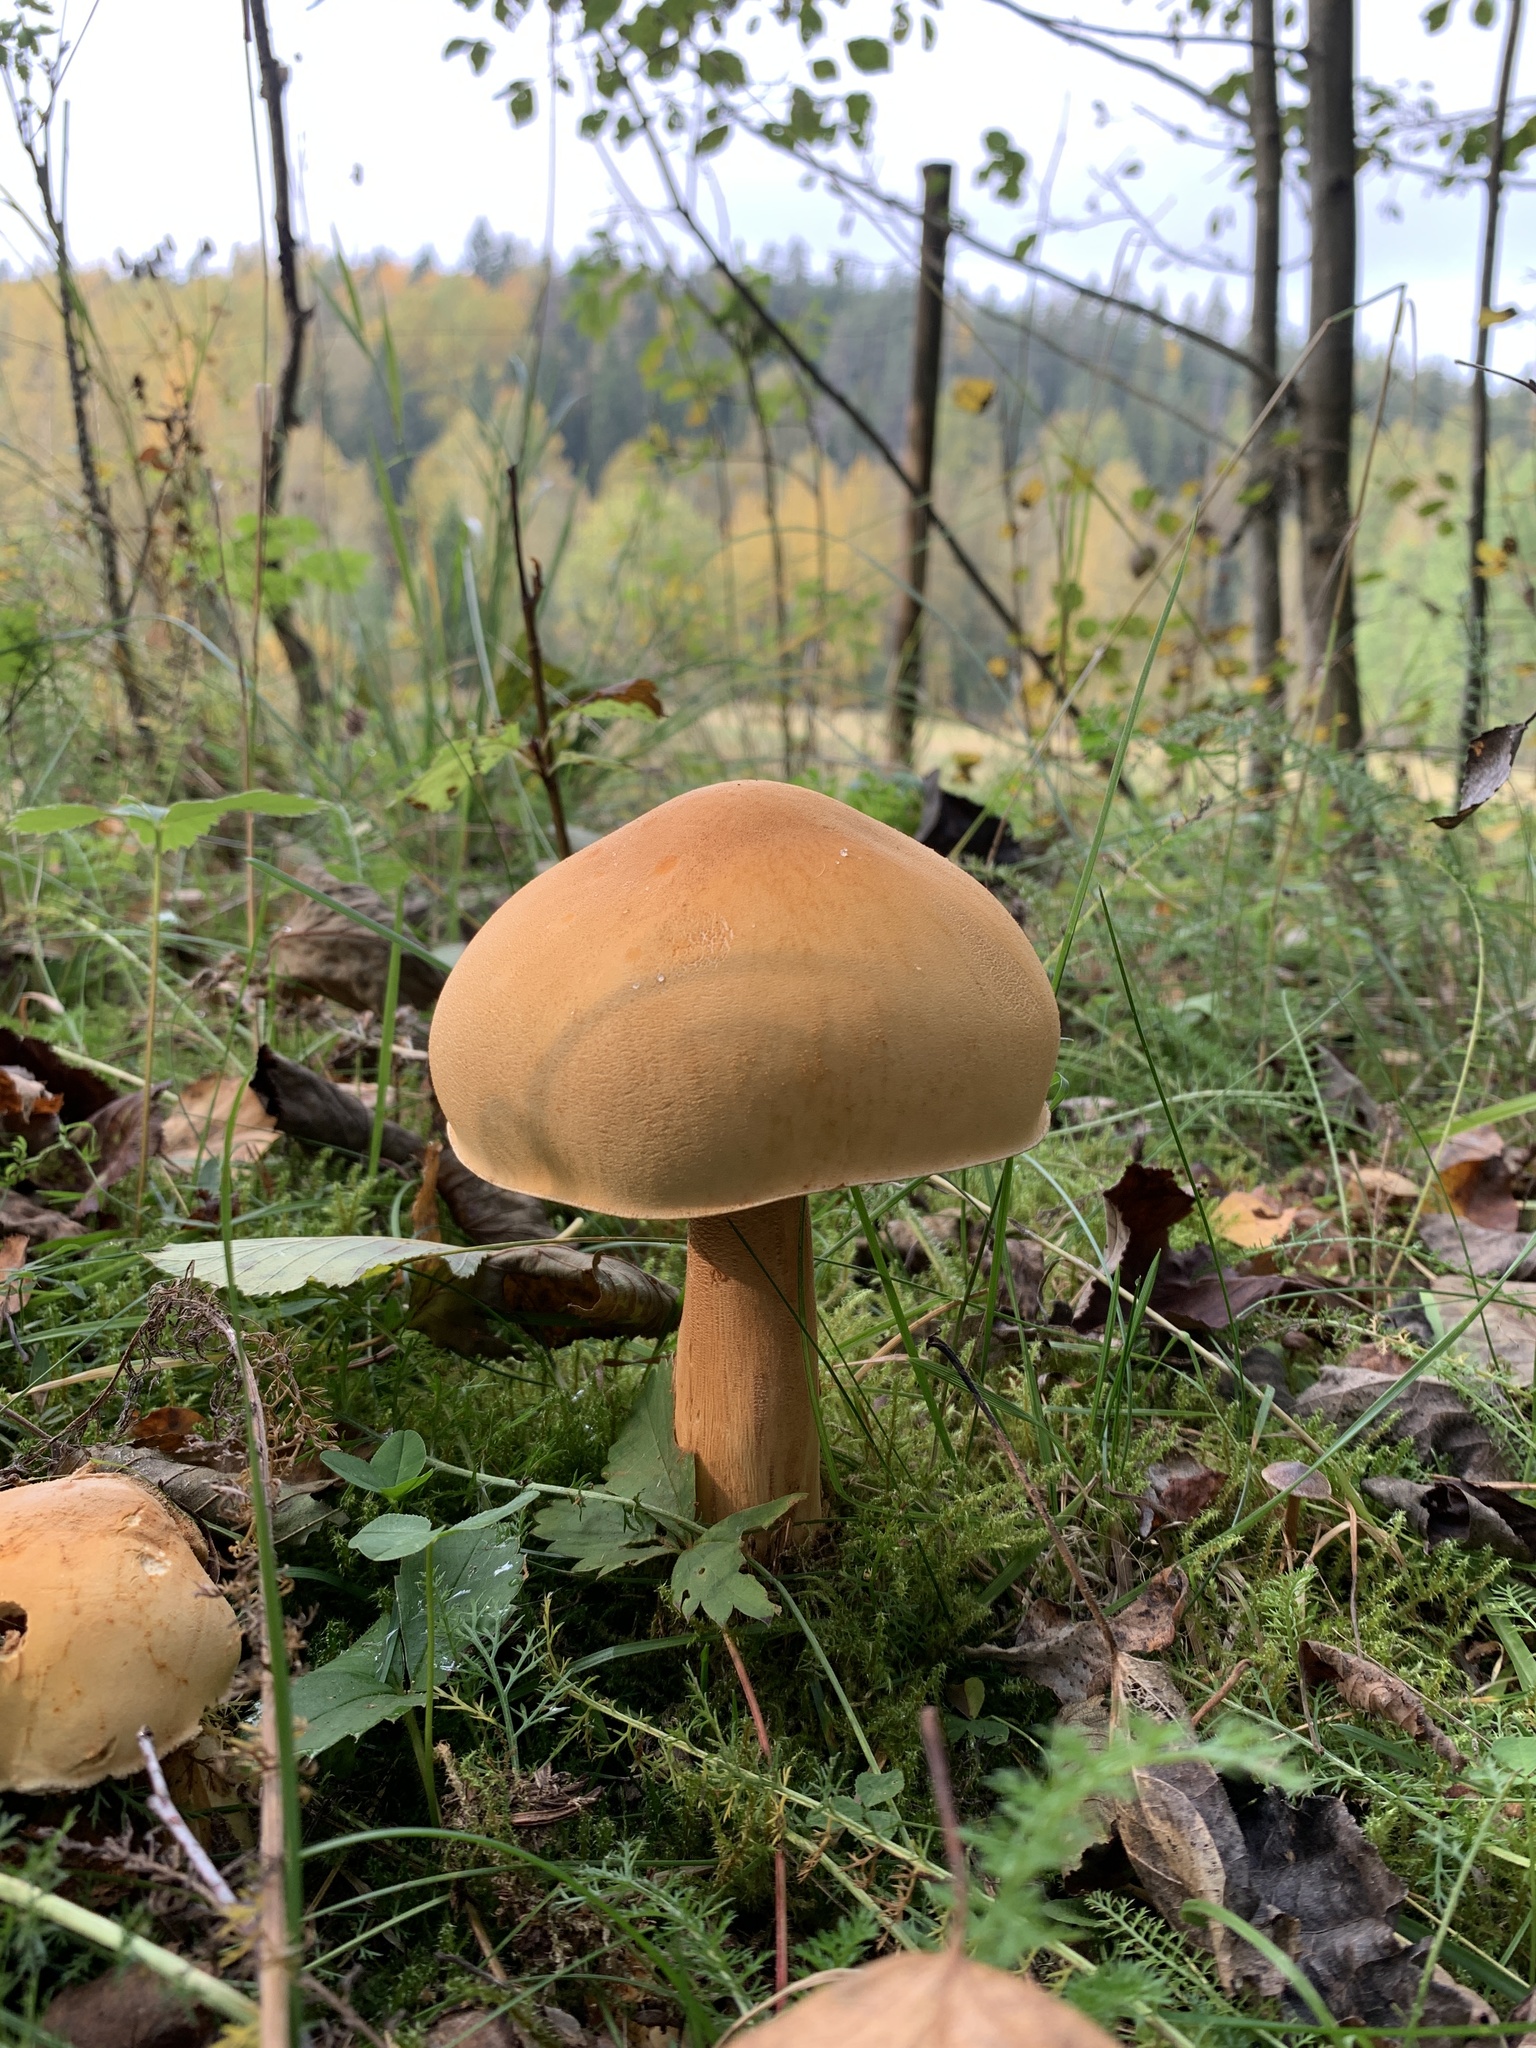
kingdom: Fungi
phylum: Basidiomycota
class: Agaricomycetes
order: Agaricales
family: Tricholomataceae
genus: Phaeolepiota
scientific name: Phaeolepiota aurea
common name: Golden bootleg
